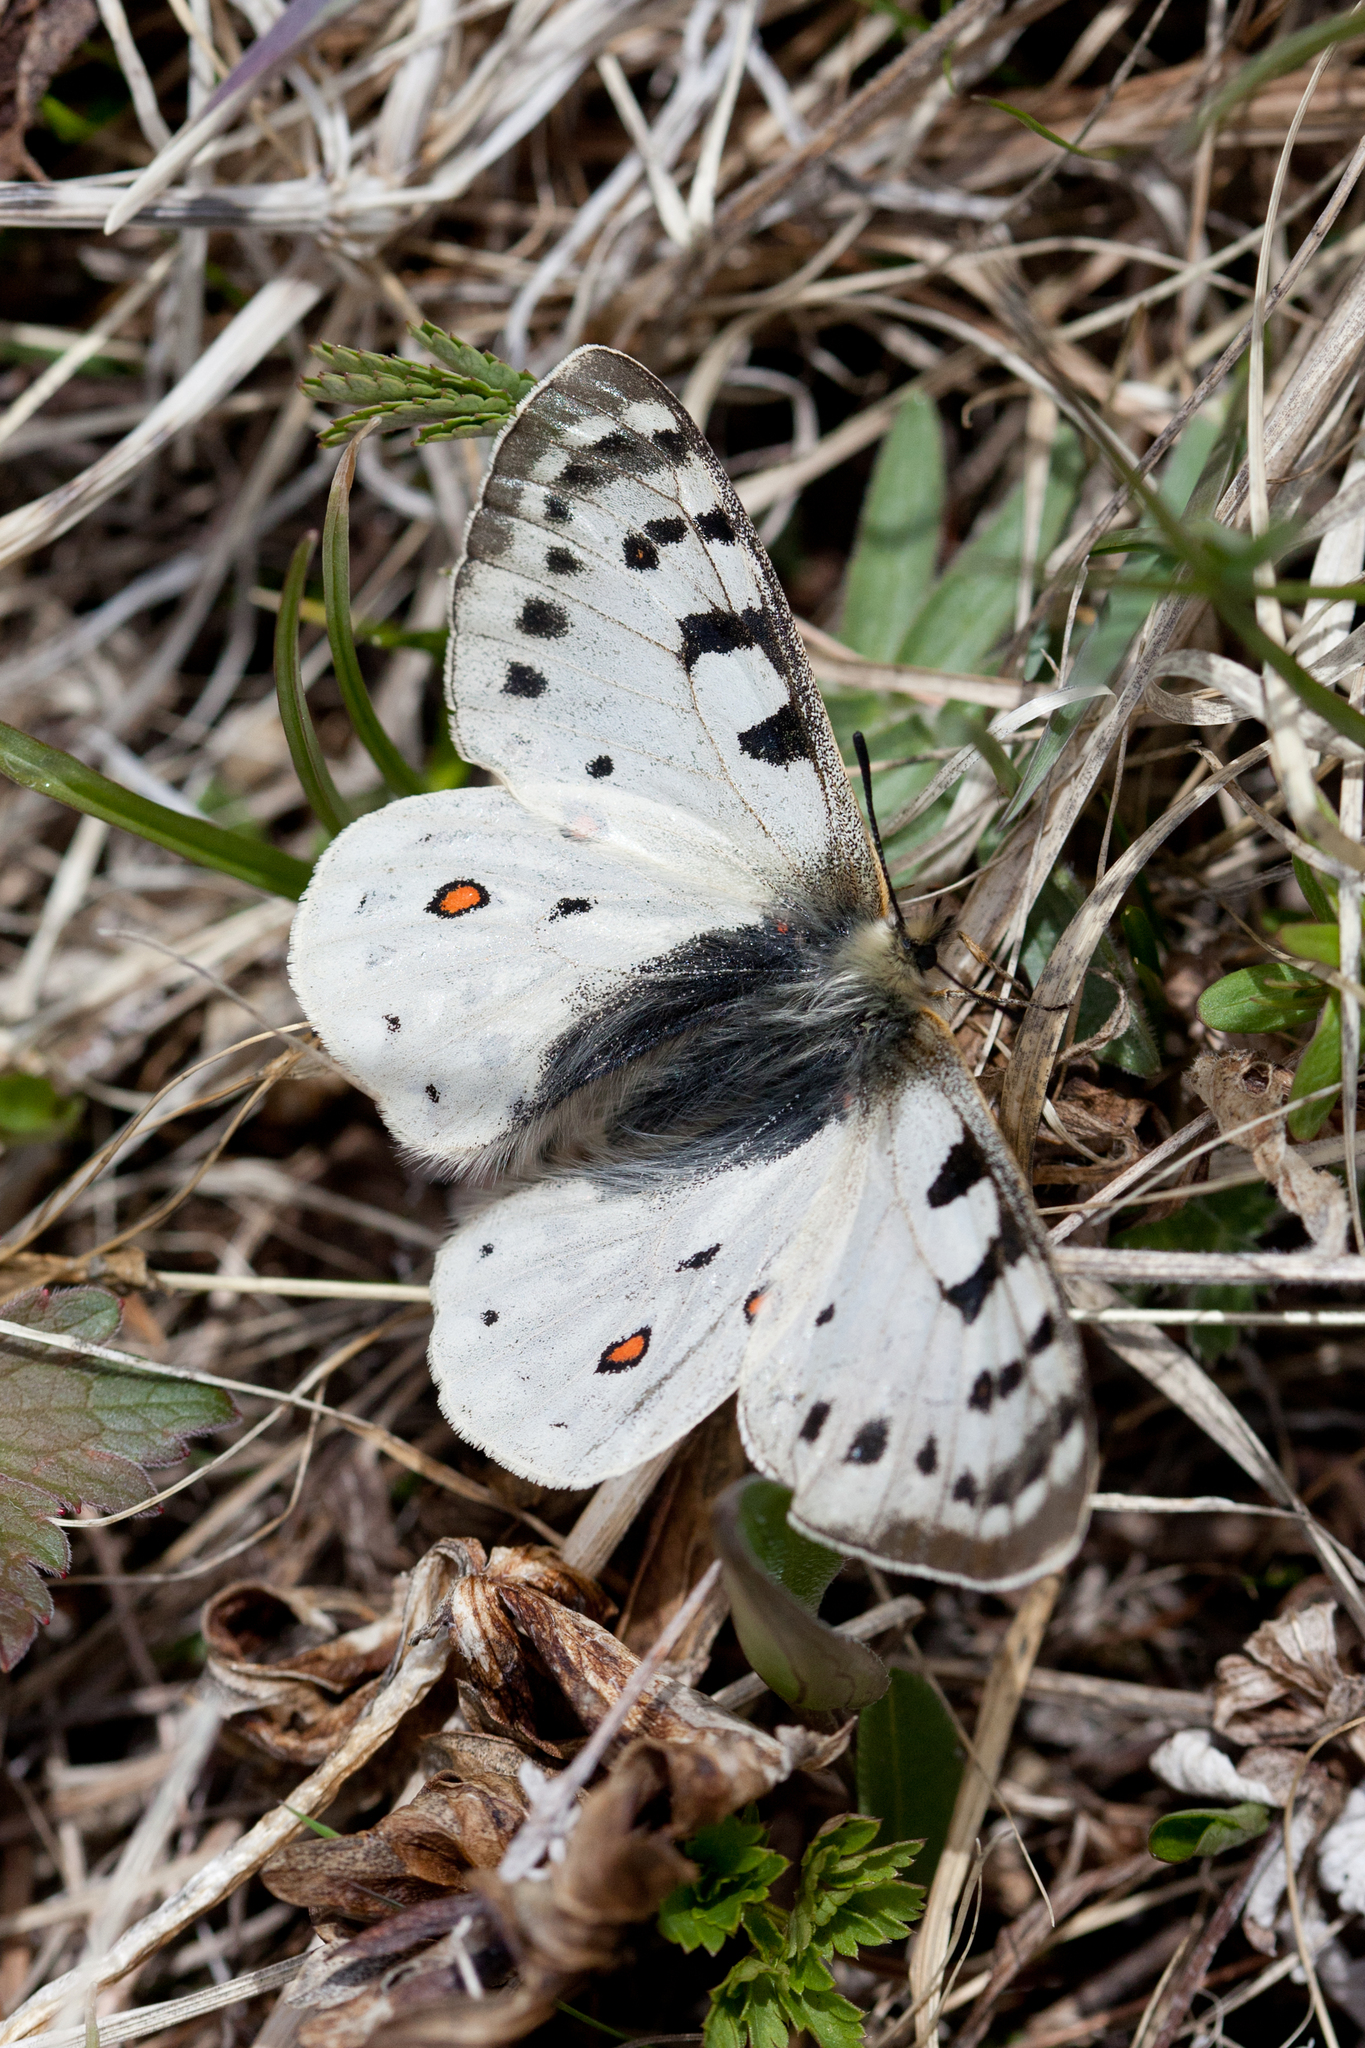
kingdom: Animalia
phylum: Arthropoda
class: Insecta
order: Lepidoptera
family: Papilionidae
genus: Parnassius
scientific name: Parnassius tenedius
